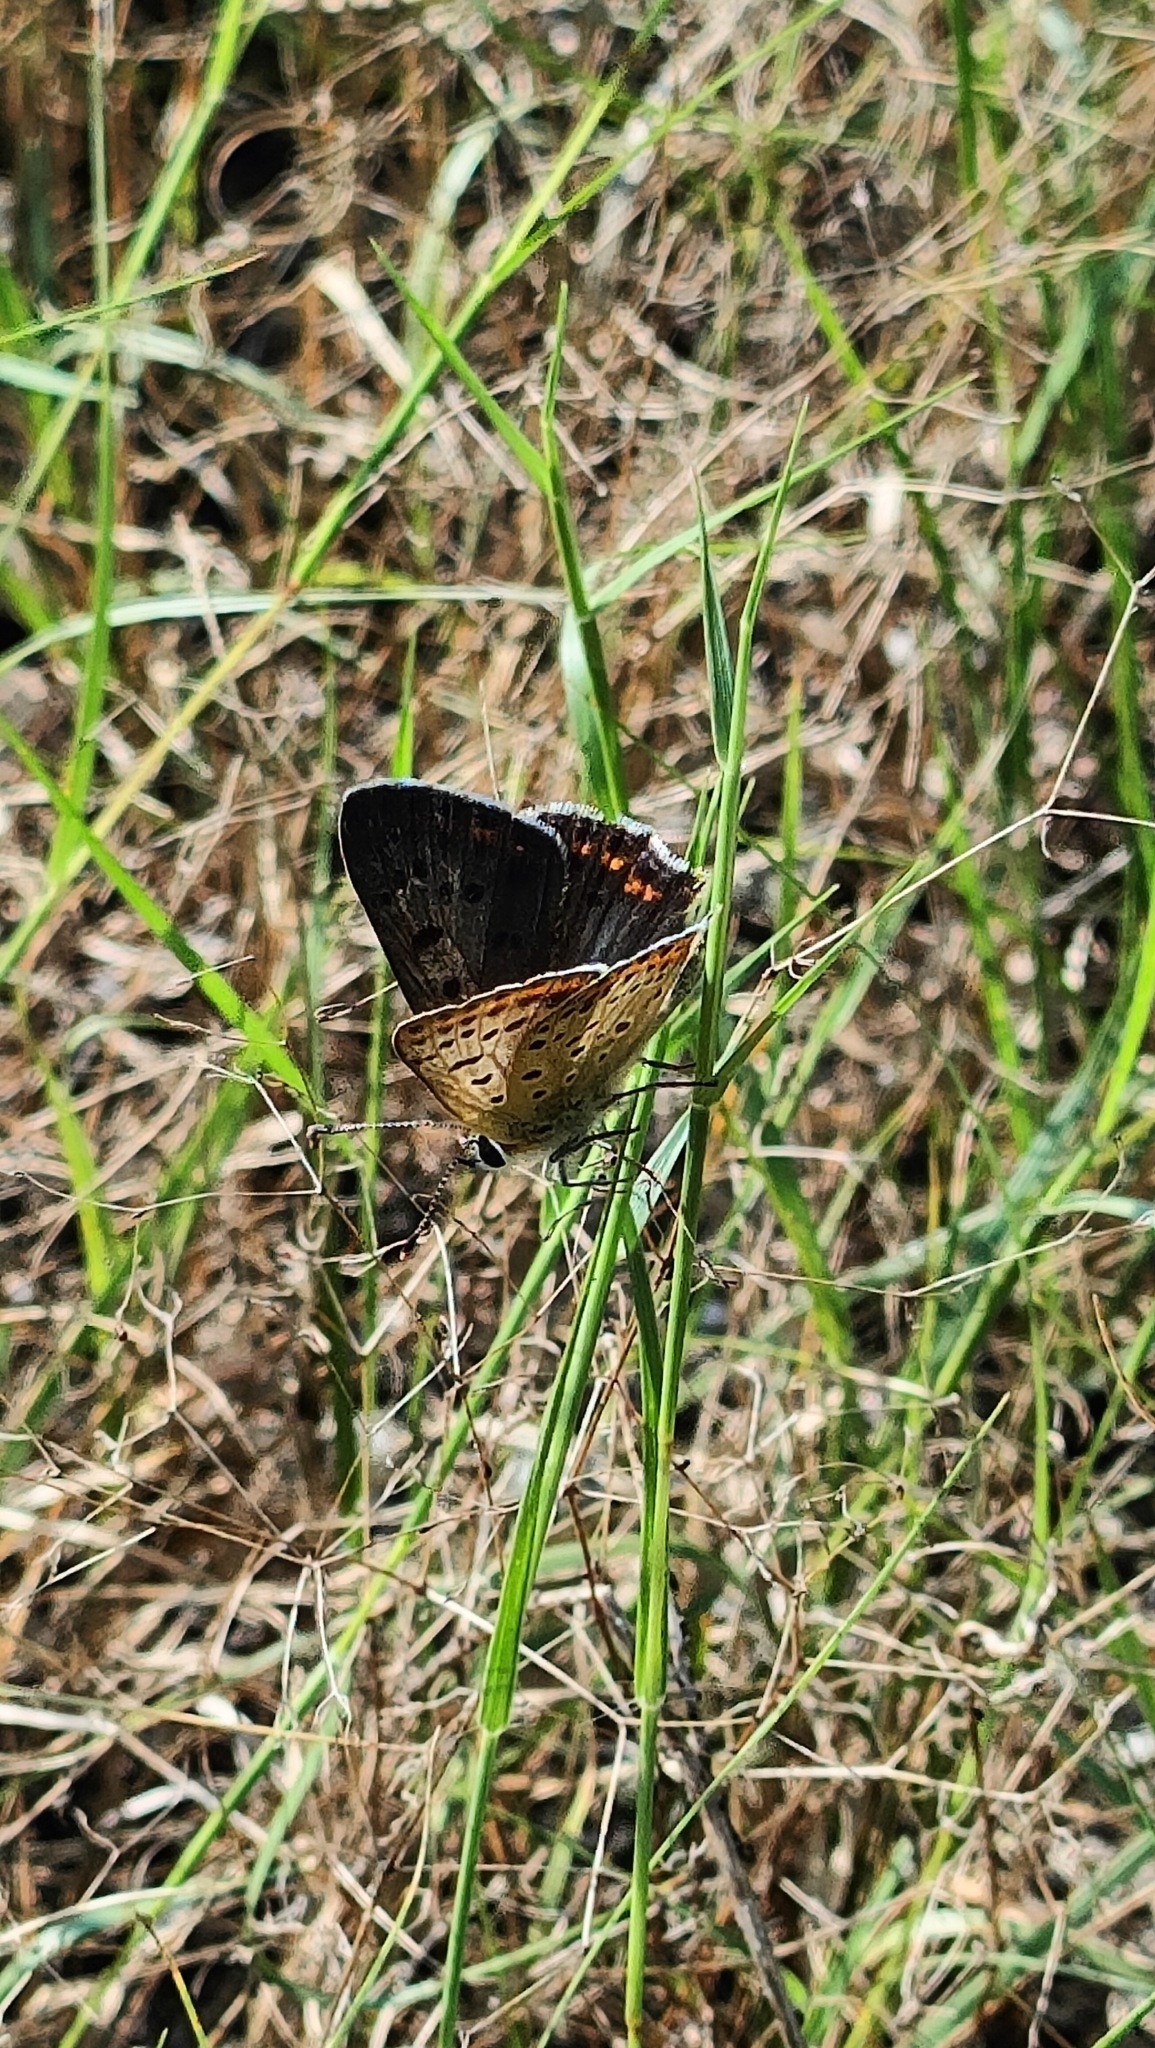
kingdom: Animalia
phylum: Arthropoda
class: Insecta
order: Lepidoptera
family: Lycaenidae
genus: Loweia
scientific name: Loweia tityrus
